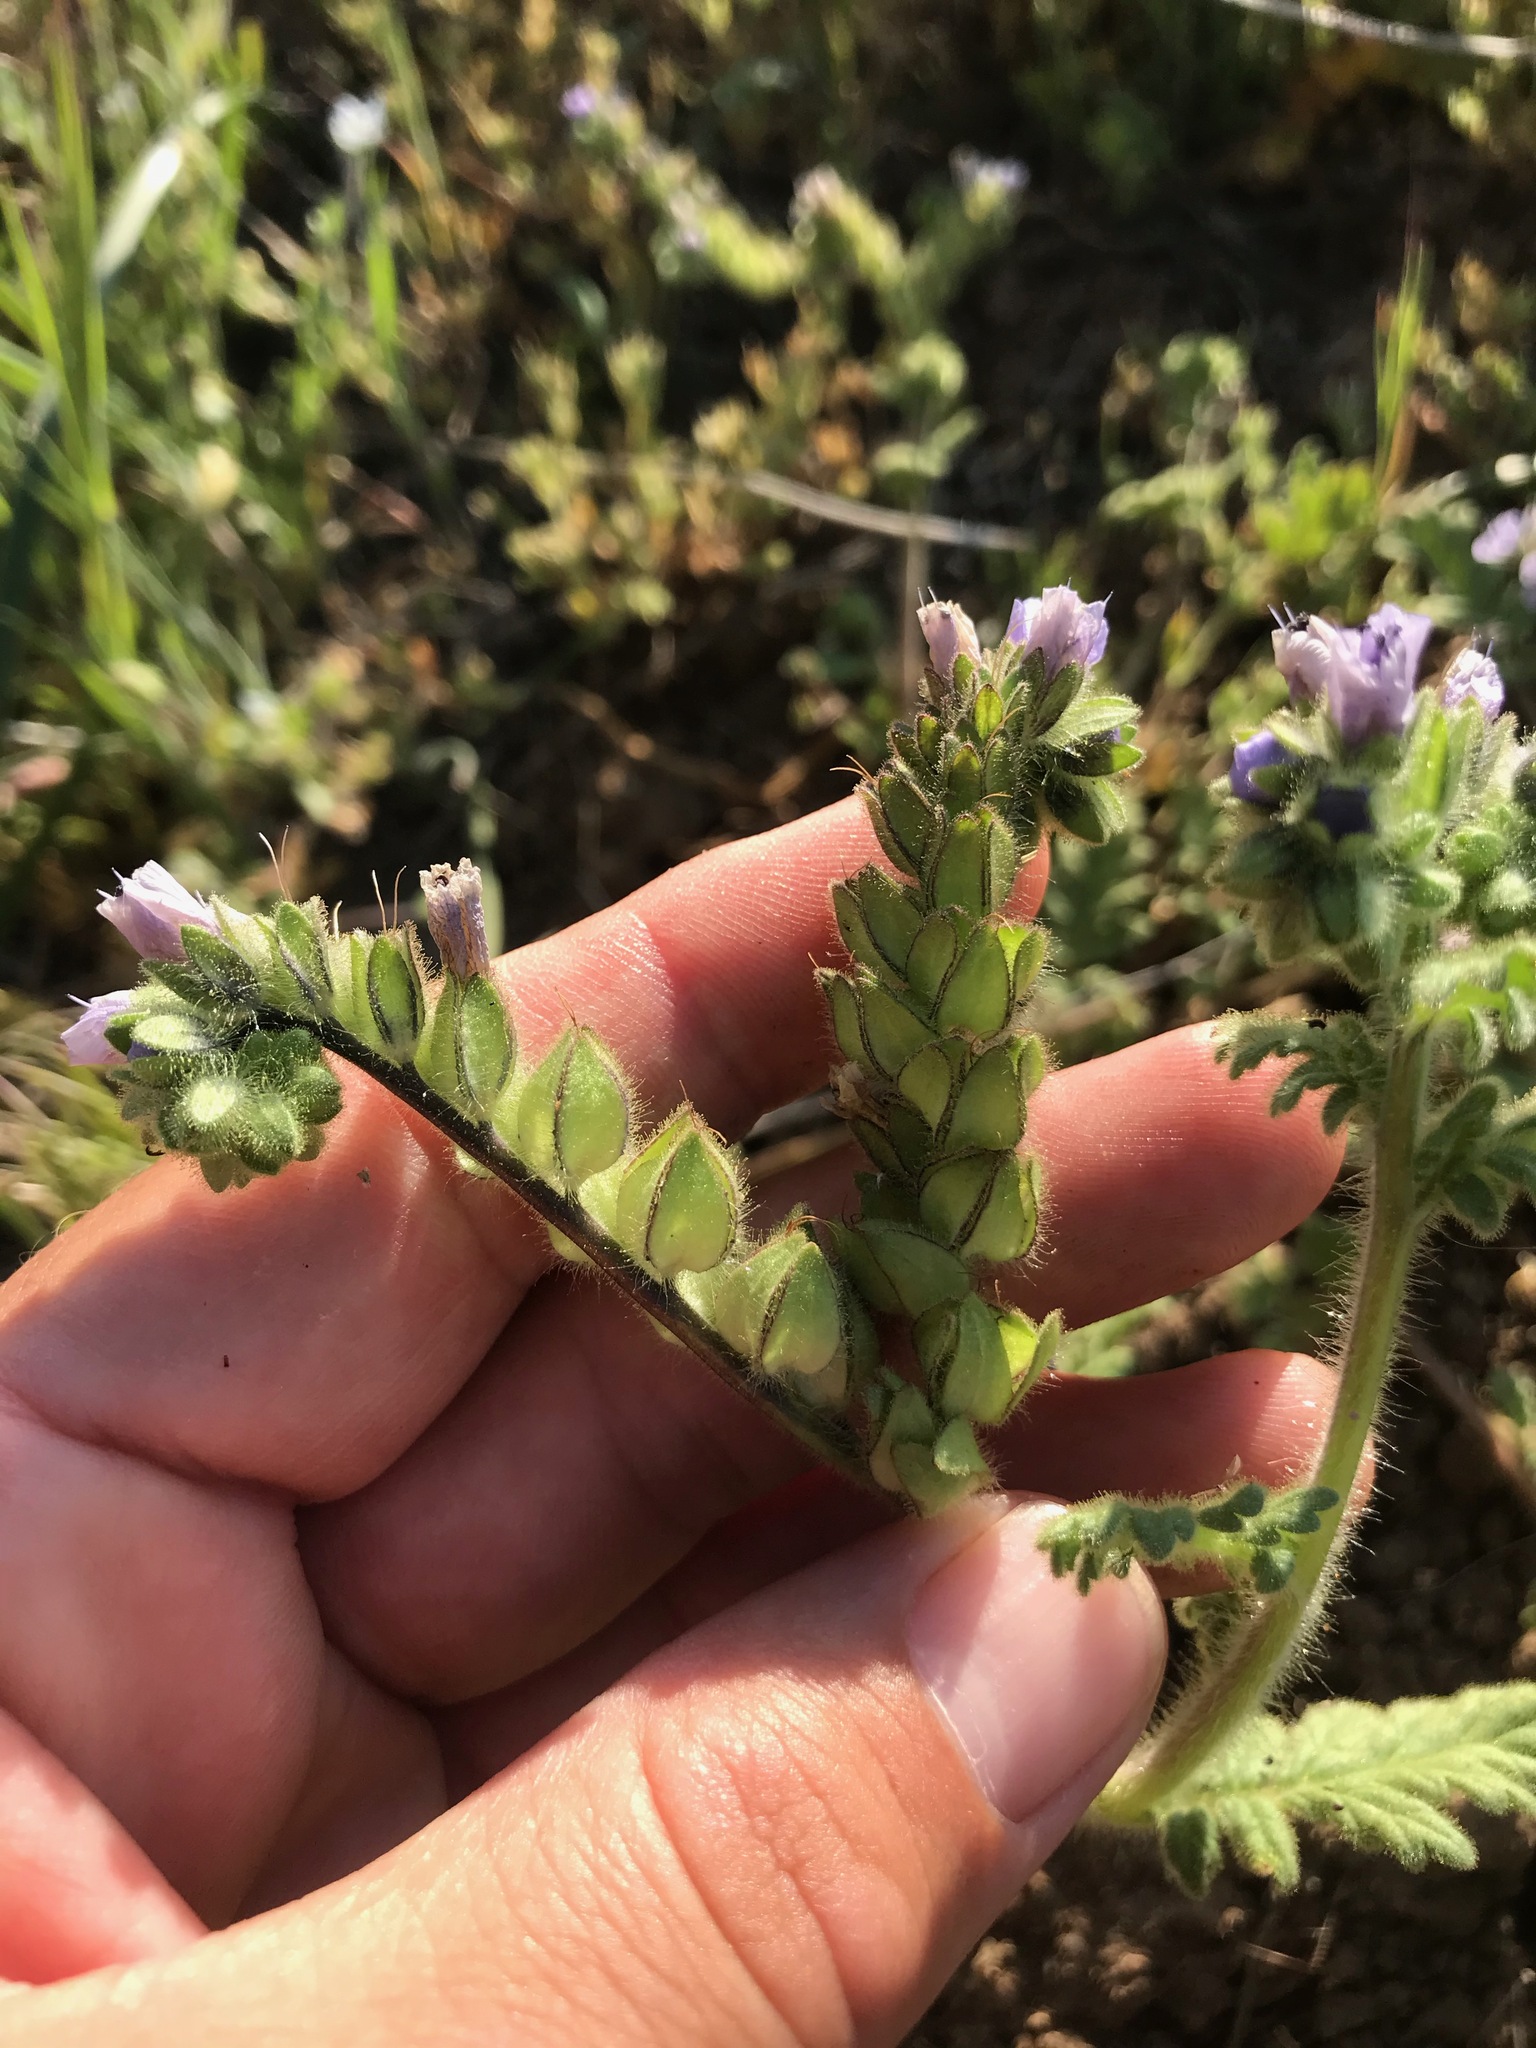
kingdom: Plantae
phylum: Tracheophyta
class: Magnoliopsida
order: Boraginales
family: Hydrophyllaceae
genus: Phacelia
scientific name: Phacelia ciliata
